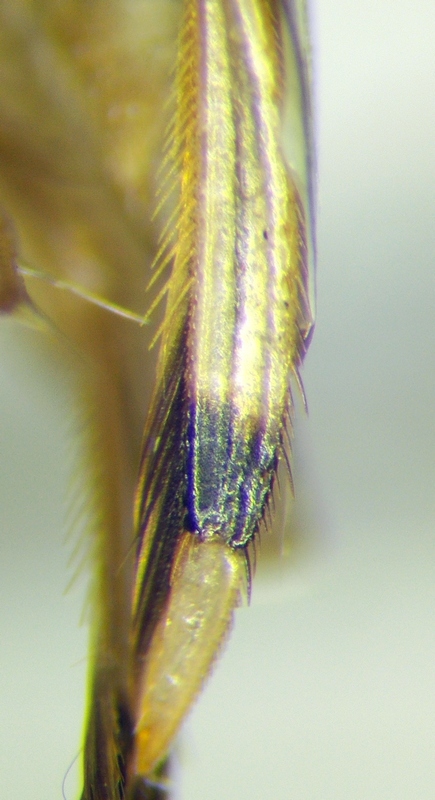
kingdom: Animalia
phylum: Arthropoda
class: Insecta
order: Hemiptera
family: Corixidae
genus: Callicorixa
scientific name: Callicorixa praeusta
